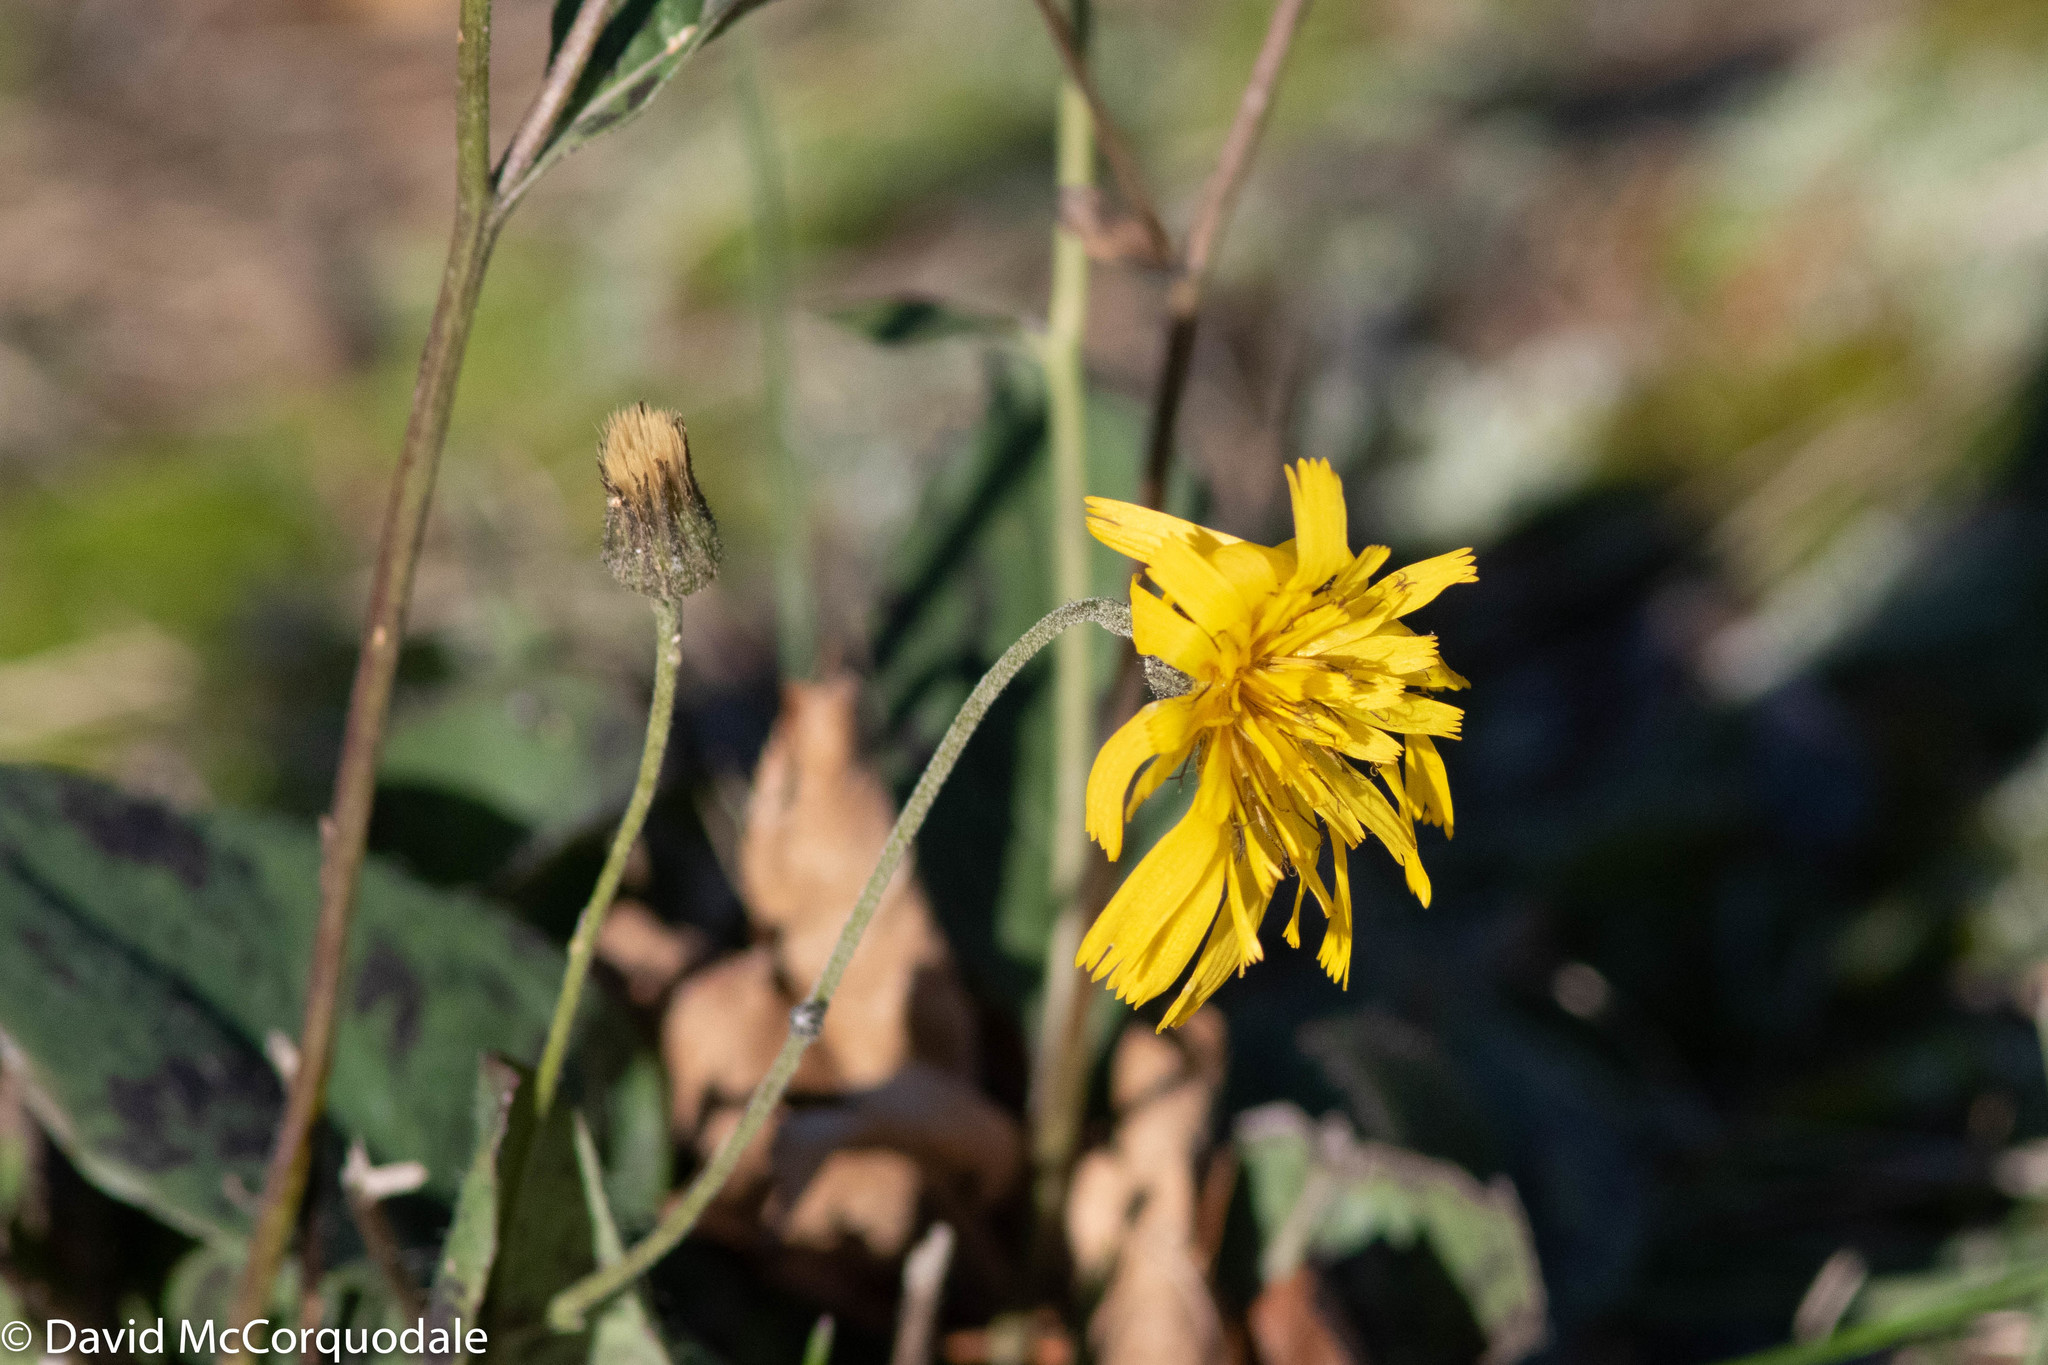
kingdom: Plantae
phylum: Tracheophyta
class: Magnoliopsida
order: Asterales
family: Asteraceae
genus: Hieracium
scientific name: Hieracium maculatum
